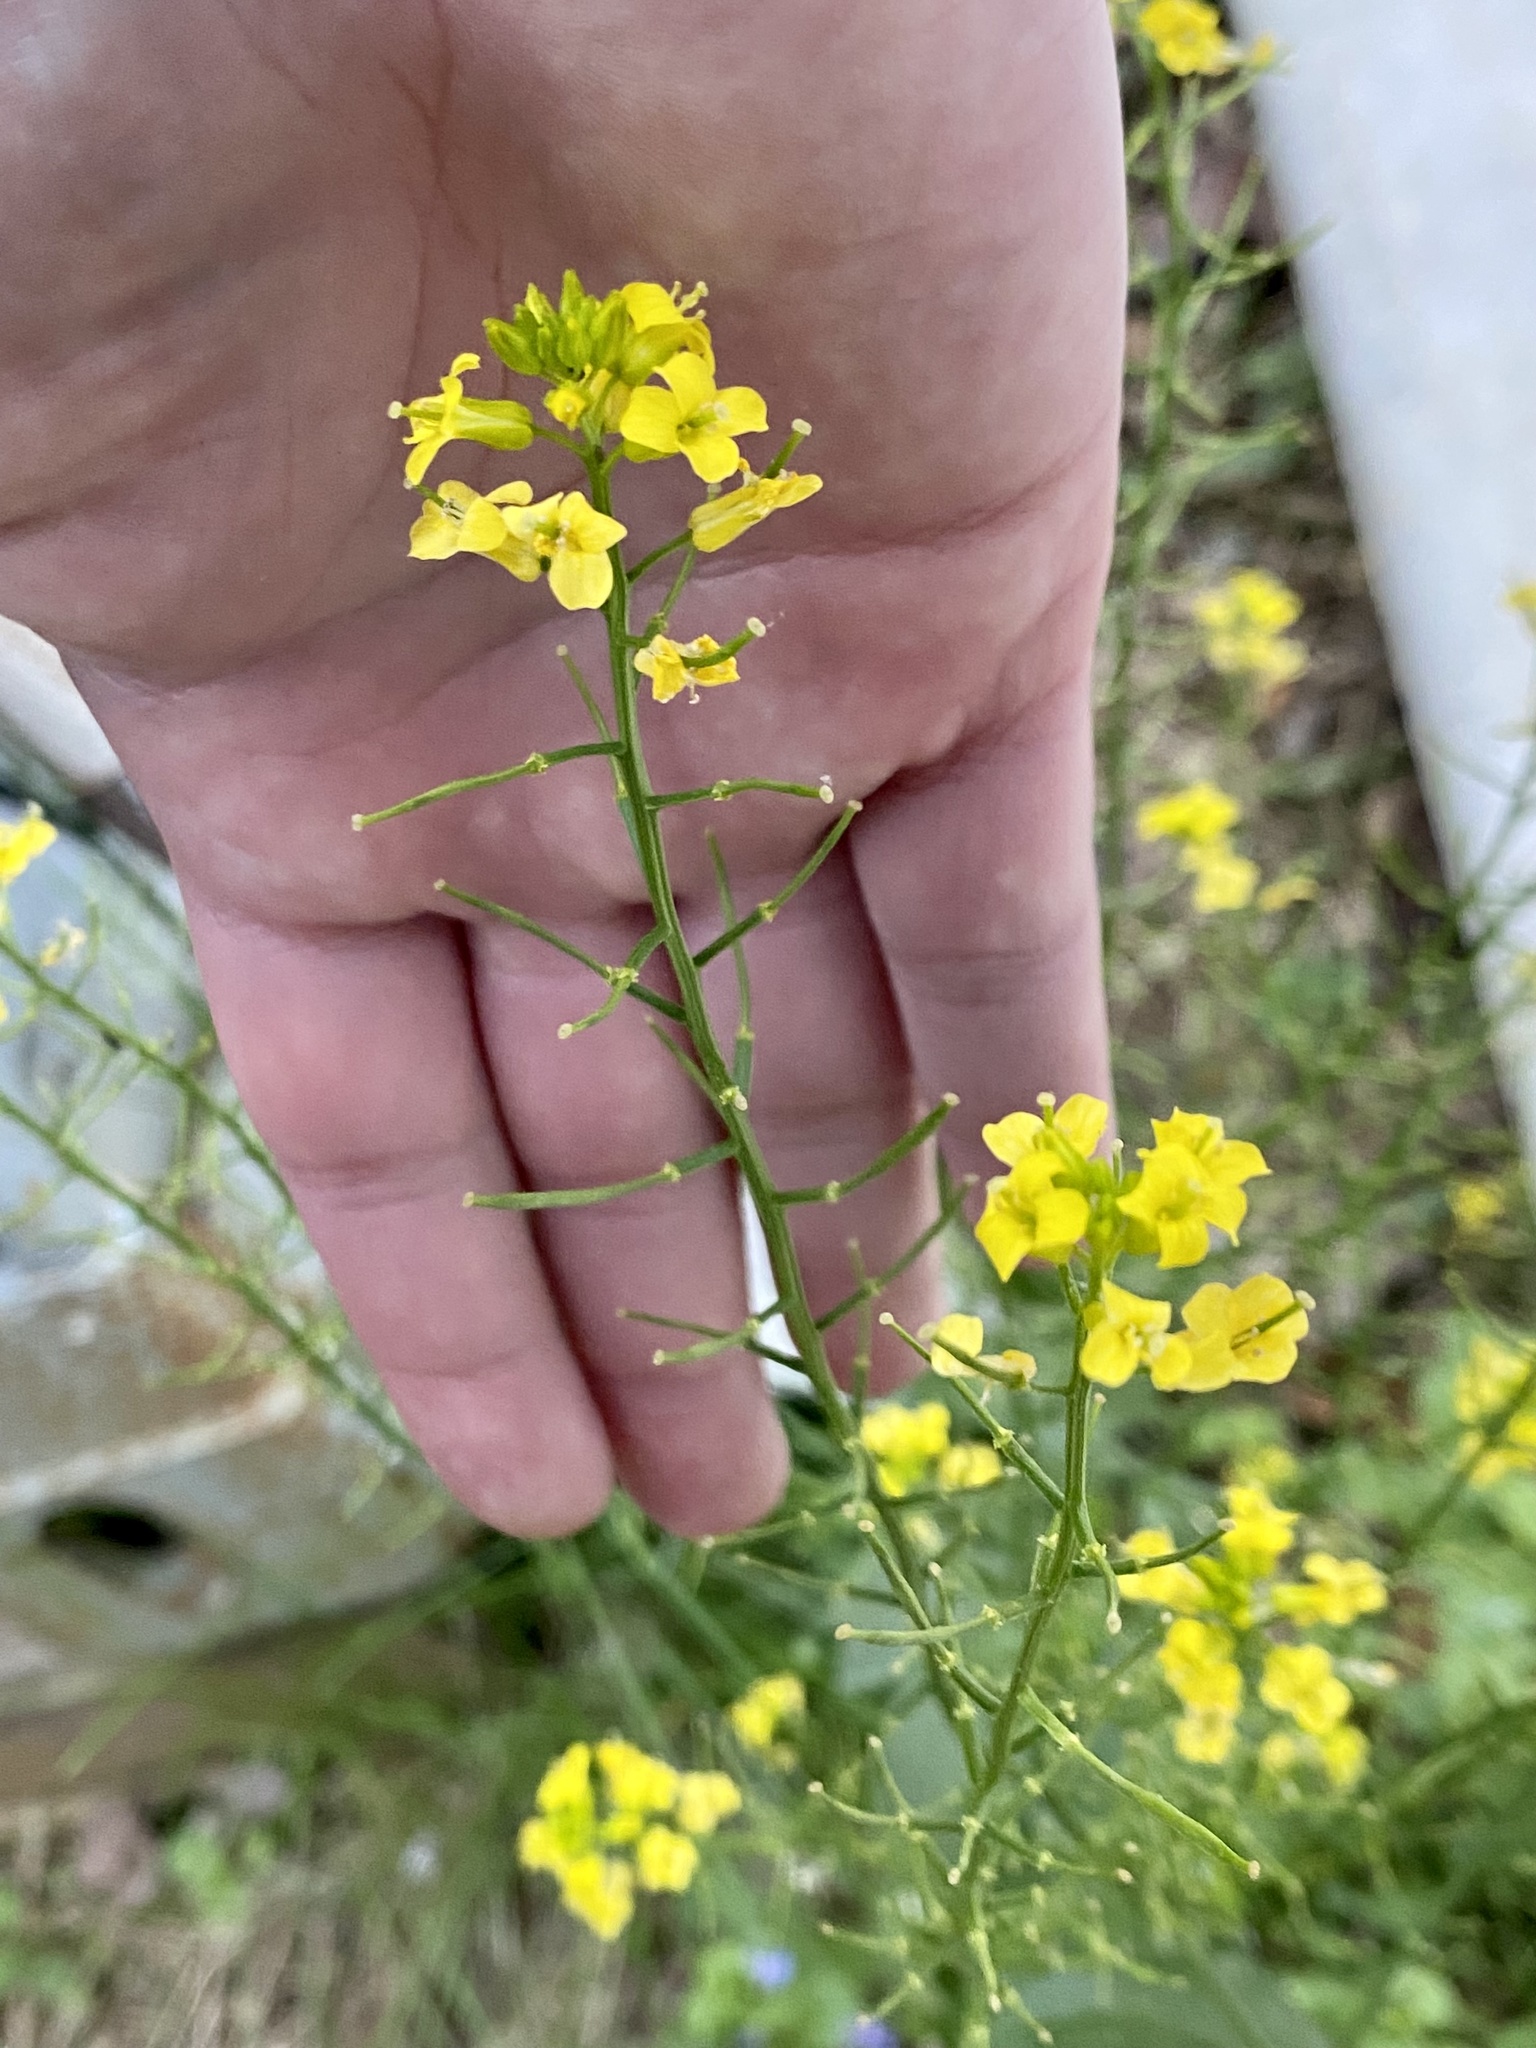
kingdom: Plantae
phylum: Tracheophyta
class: Magnoliopsida
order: Brassicales
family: Brassicaceae
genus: Barbarea
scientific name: Barbarea vulgaris
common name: Cressy-greens
